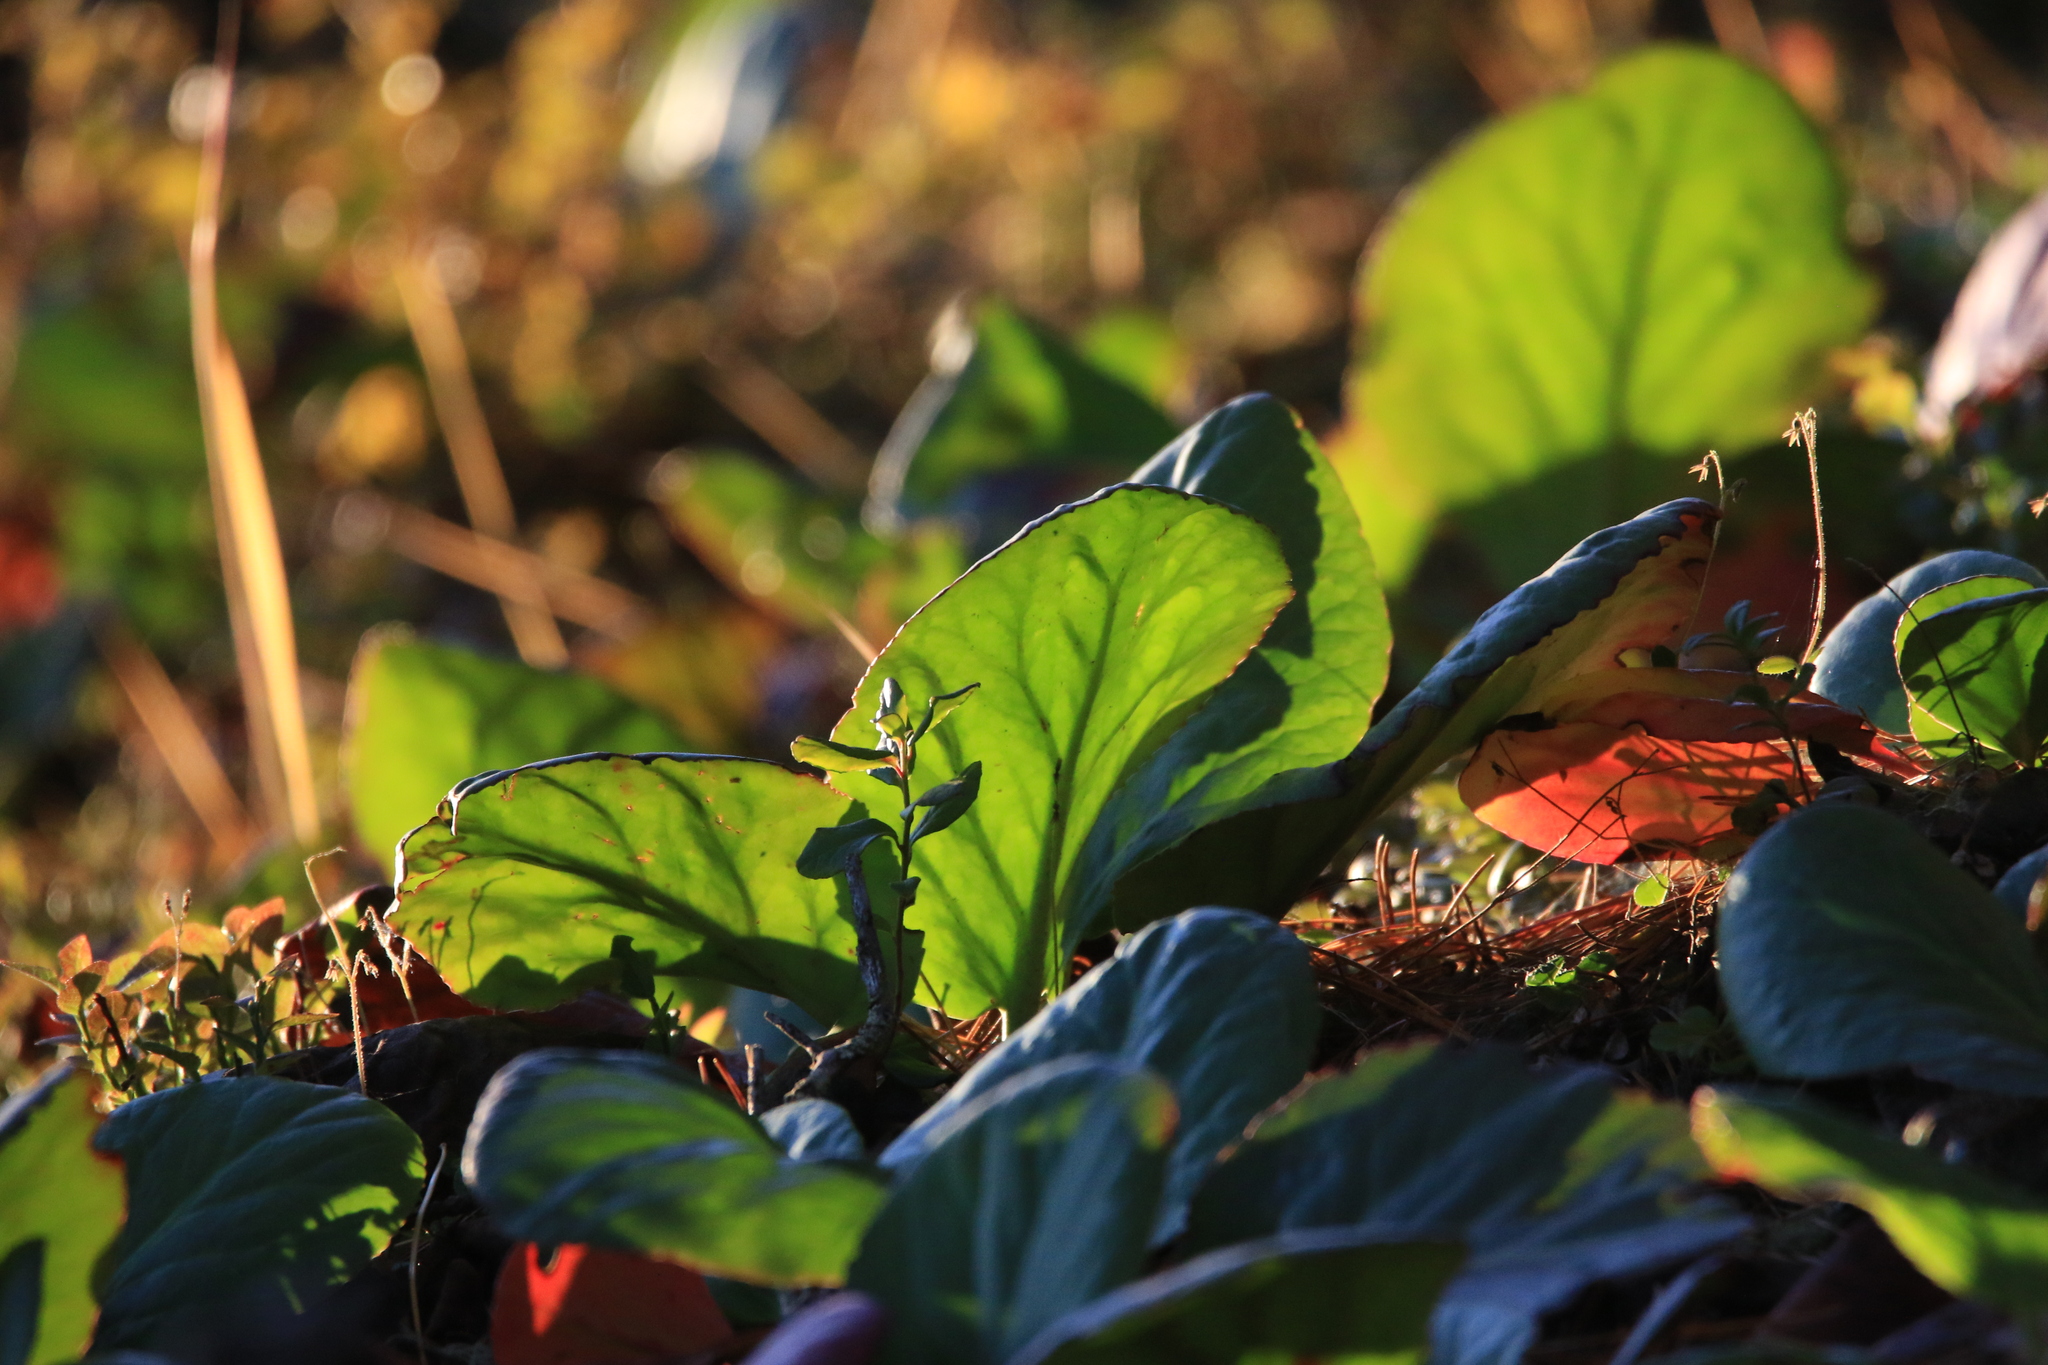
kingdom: Plantae
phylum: Tracheophyta
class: Magnoliopsida
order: Saxifragales
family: Saxifragaceae
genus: Bergenia
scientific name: Bergenia crassifolia
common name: Elephant-ears
